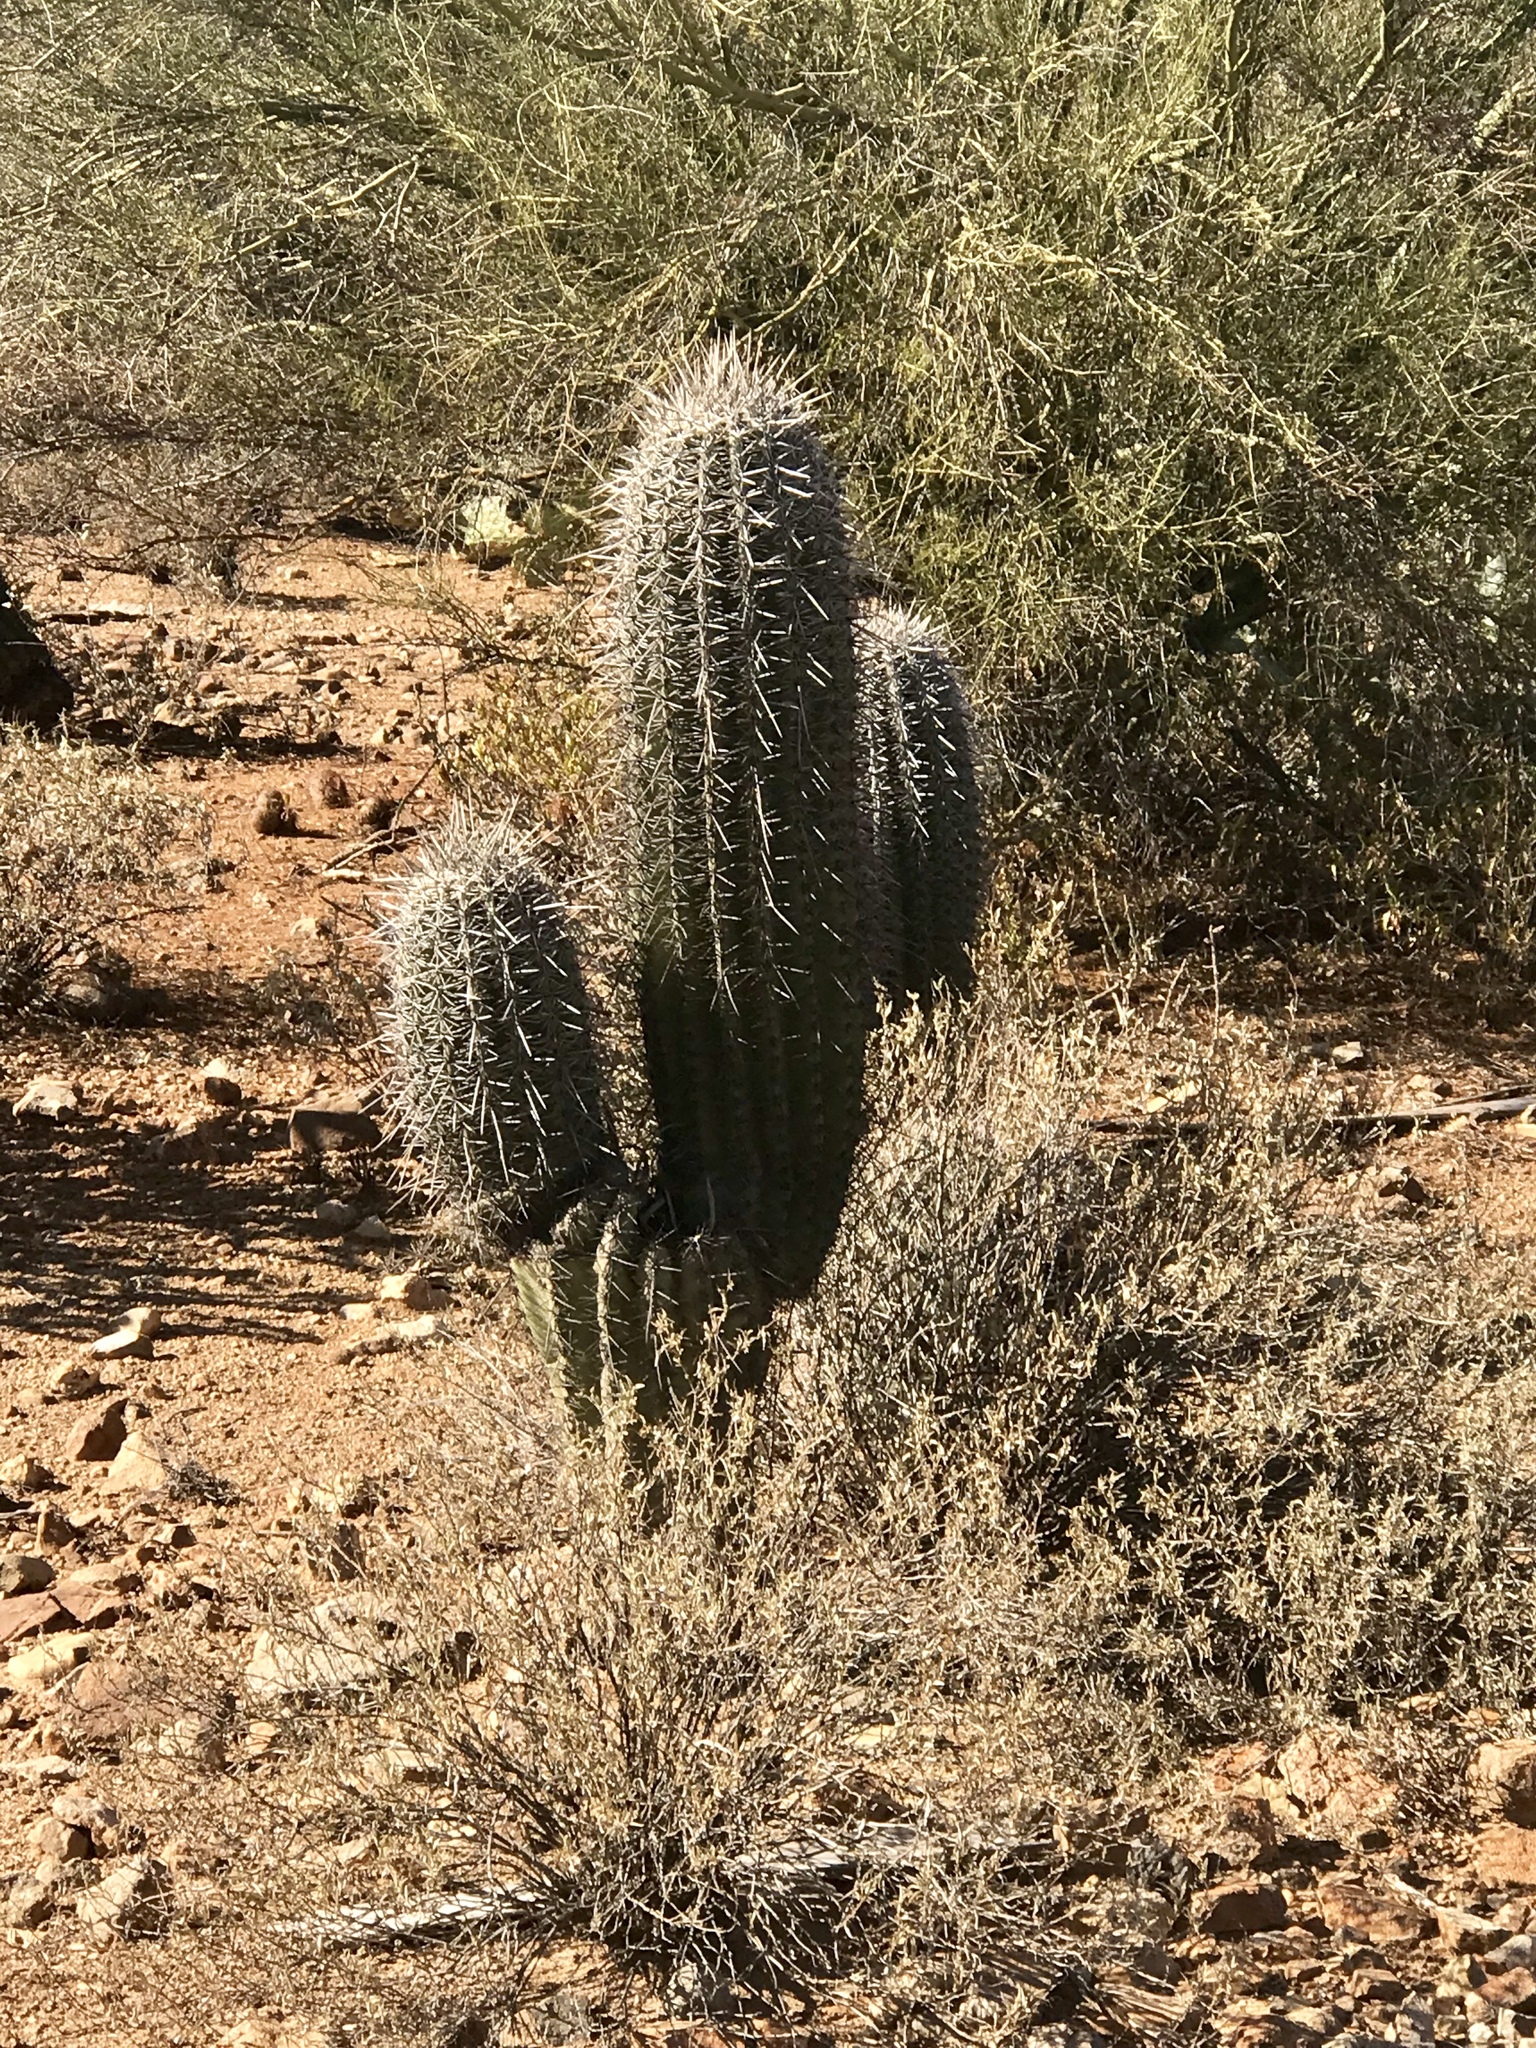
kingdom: Plantae
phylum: Tracheophyta
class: Magnoliopsida
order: Caryophyllales
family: Cactaceae
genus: Carnegiea
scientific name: Carnegiea gigantea
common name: Saguaro
